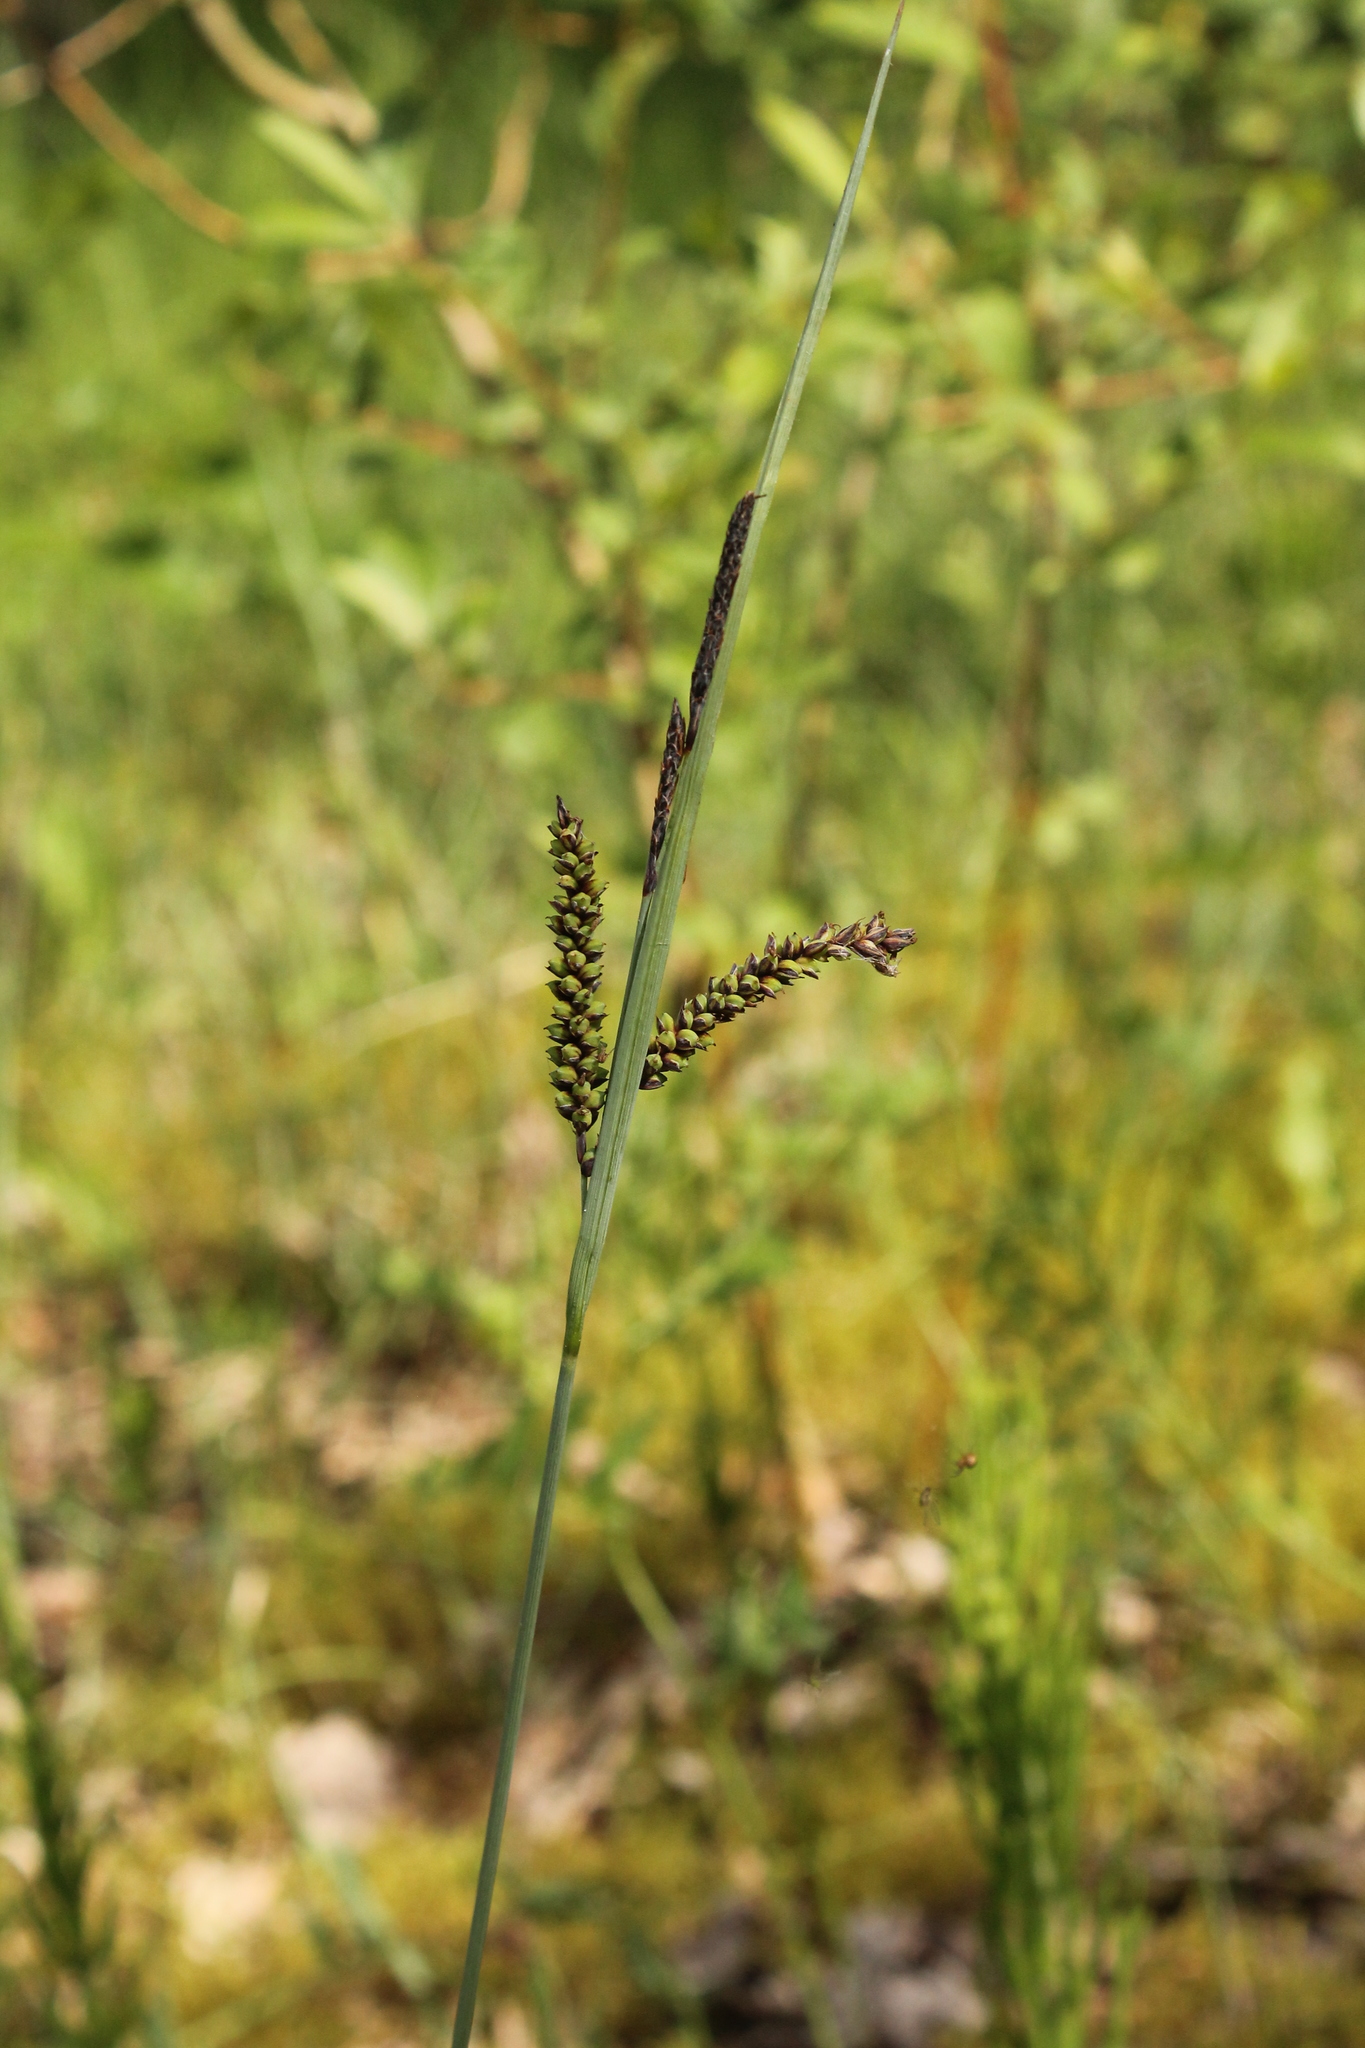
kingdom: Plantae
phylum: Tracheophyta
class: Liliopsida
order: Poales
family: Cyperaceae
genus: Carex
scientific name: Carex flacca
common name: Glaucous sedge
